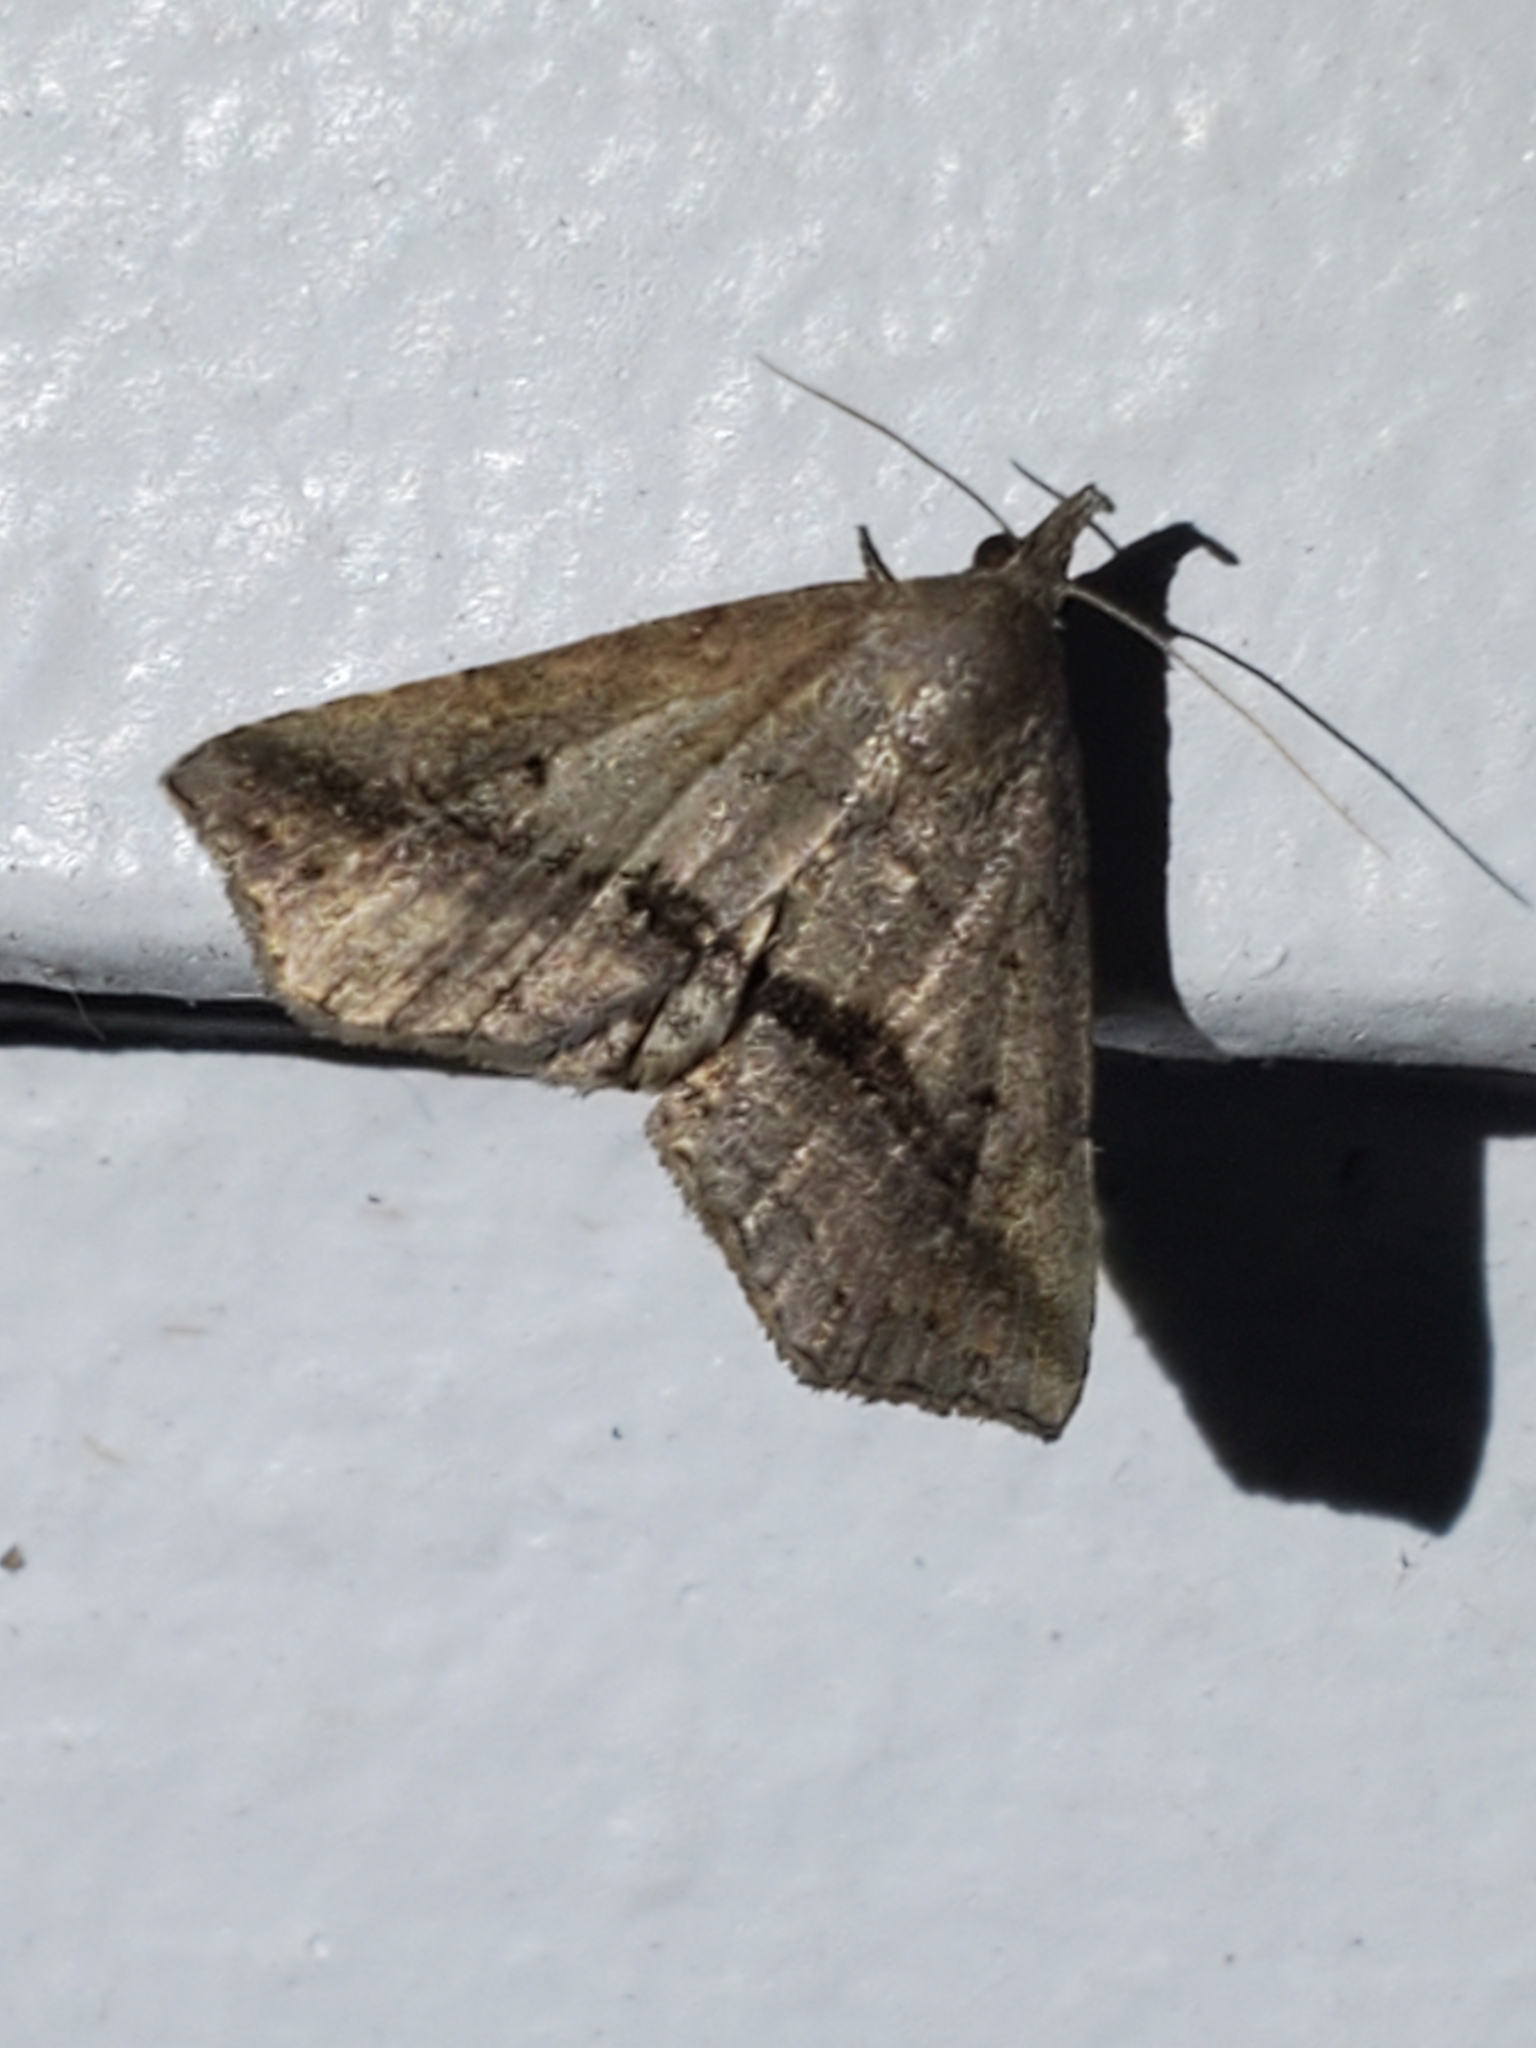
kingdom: Animalia
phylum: Arthropoda
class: Insecta
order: Lepidoptera
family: Erebidae
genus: Spargaloma
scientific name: Spargaloma perditalis
